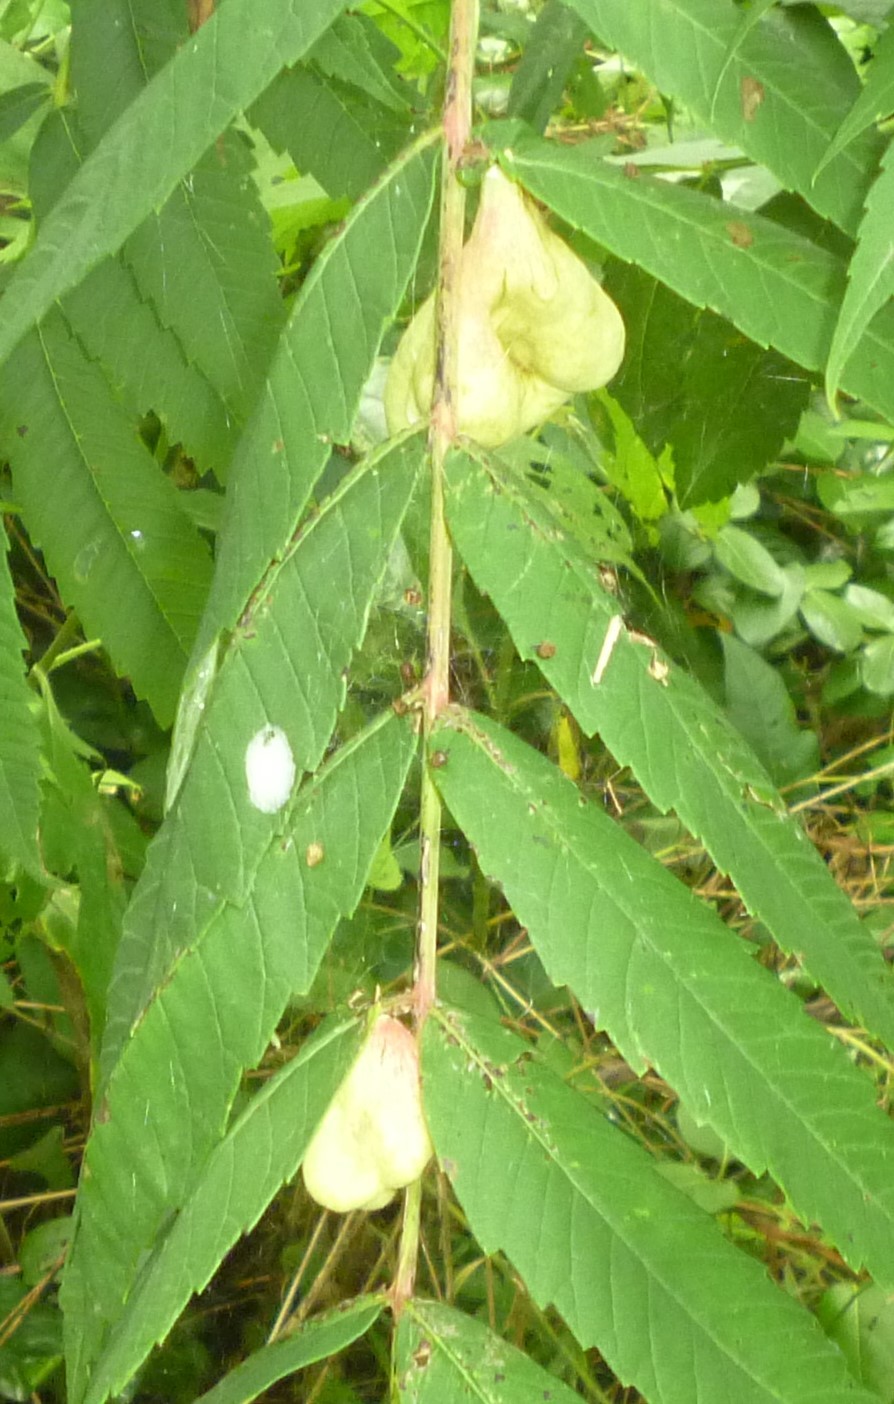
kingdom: Animalia
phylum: Arthropoda
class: Insecta
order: Hemiptera
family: Aphididae
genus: Melaphis
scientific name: Melaphis rhois
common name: Sumac gall aphid
